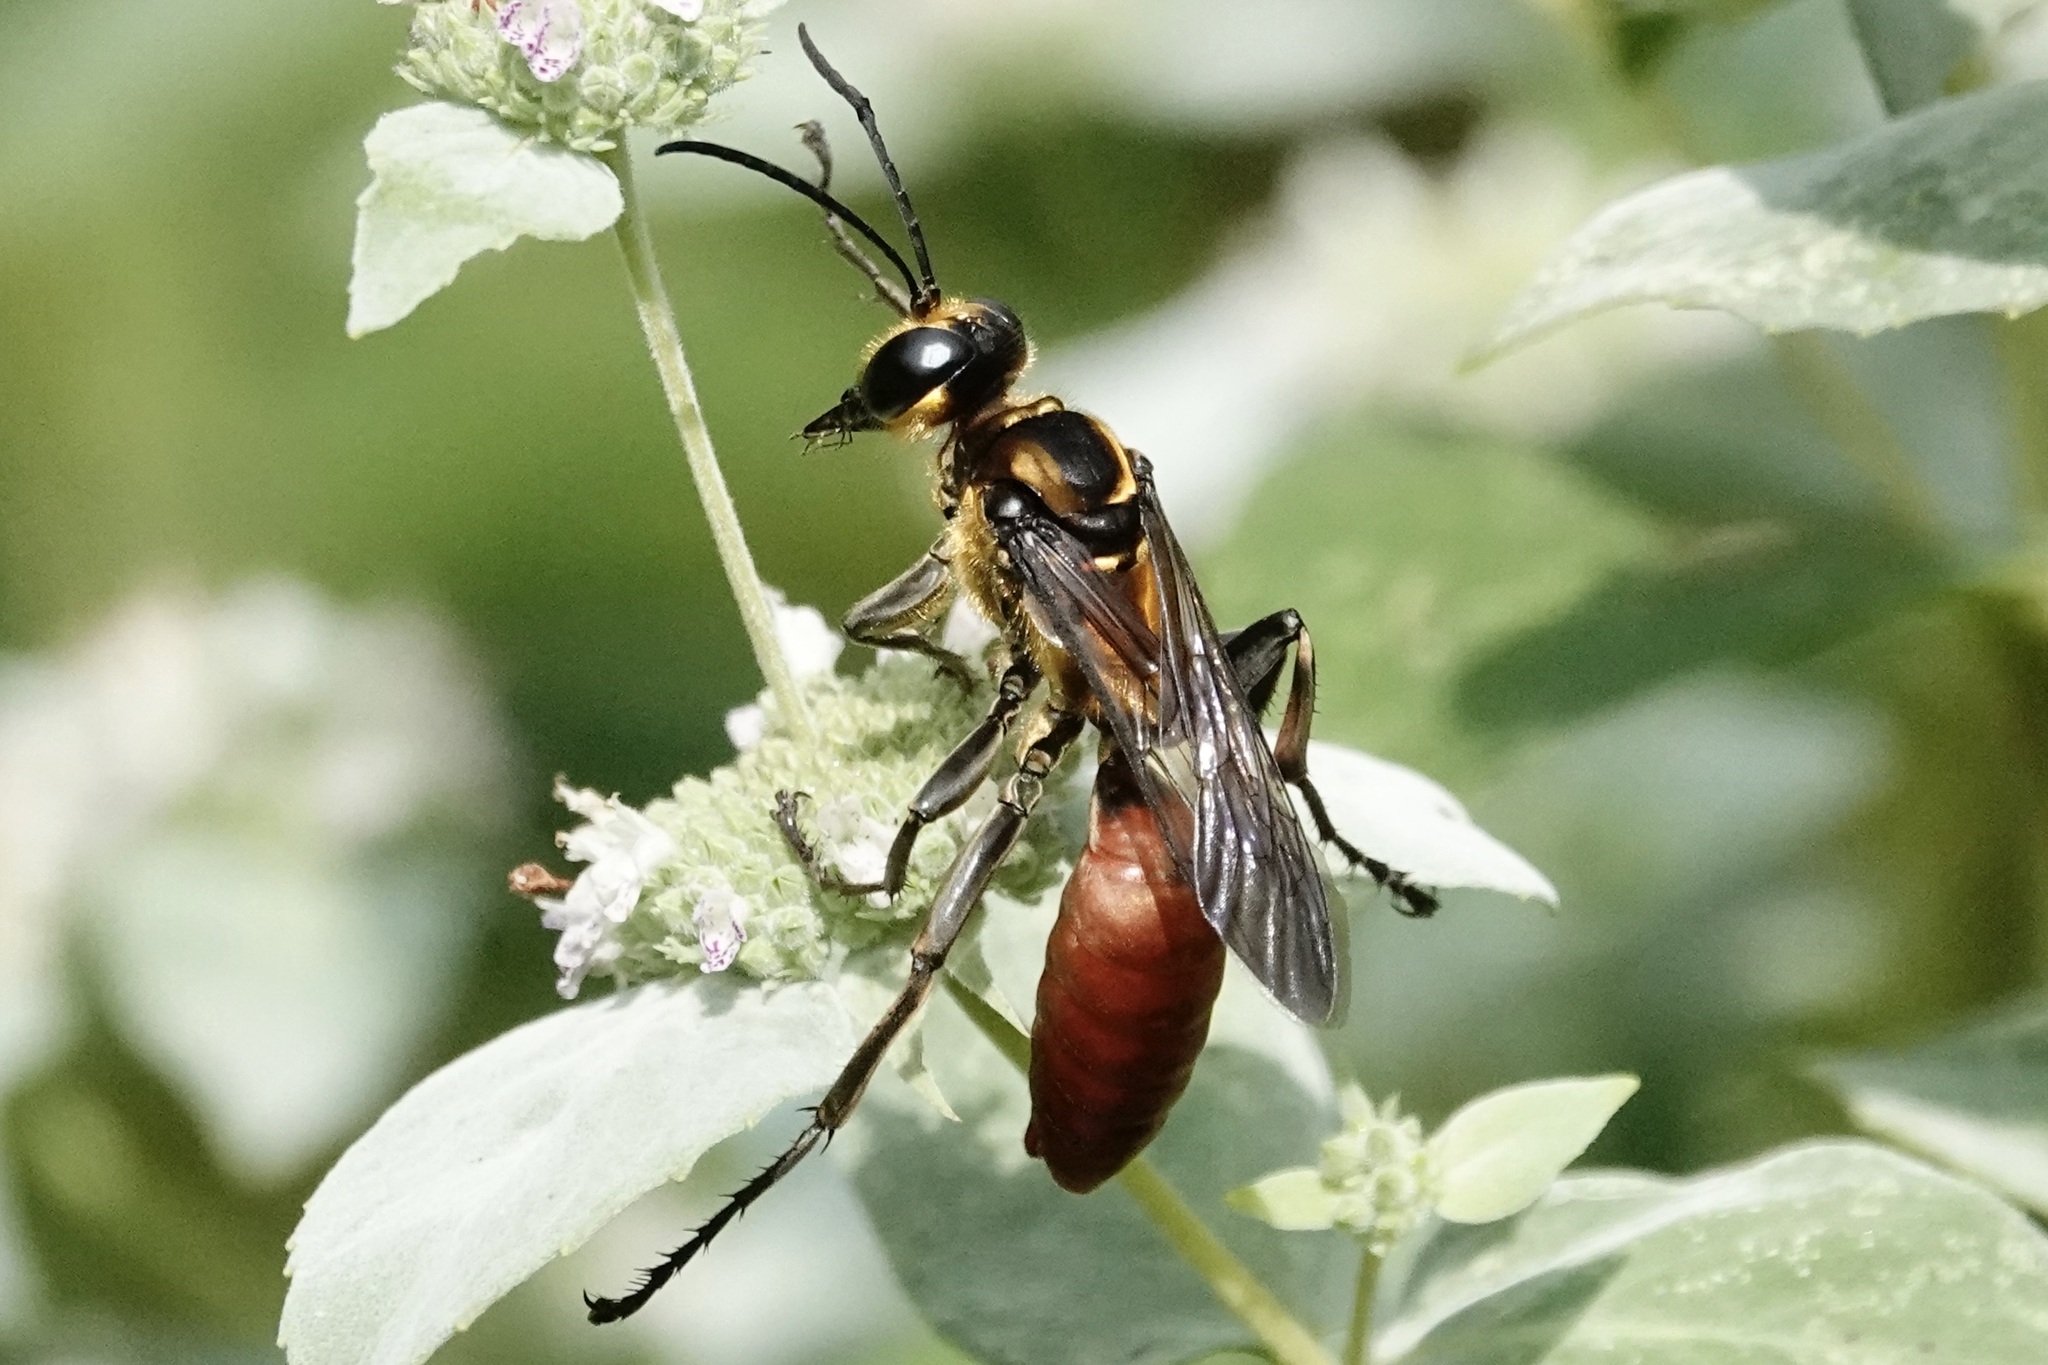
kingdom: Animalia
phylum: Arthropoda
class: Insecta
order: Hymenoptera
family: Sphecidae
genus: Sphex
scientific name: Sphex habenus
